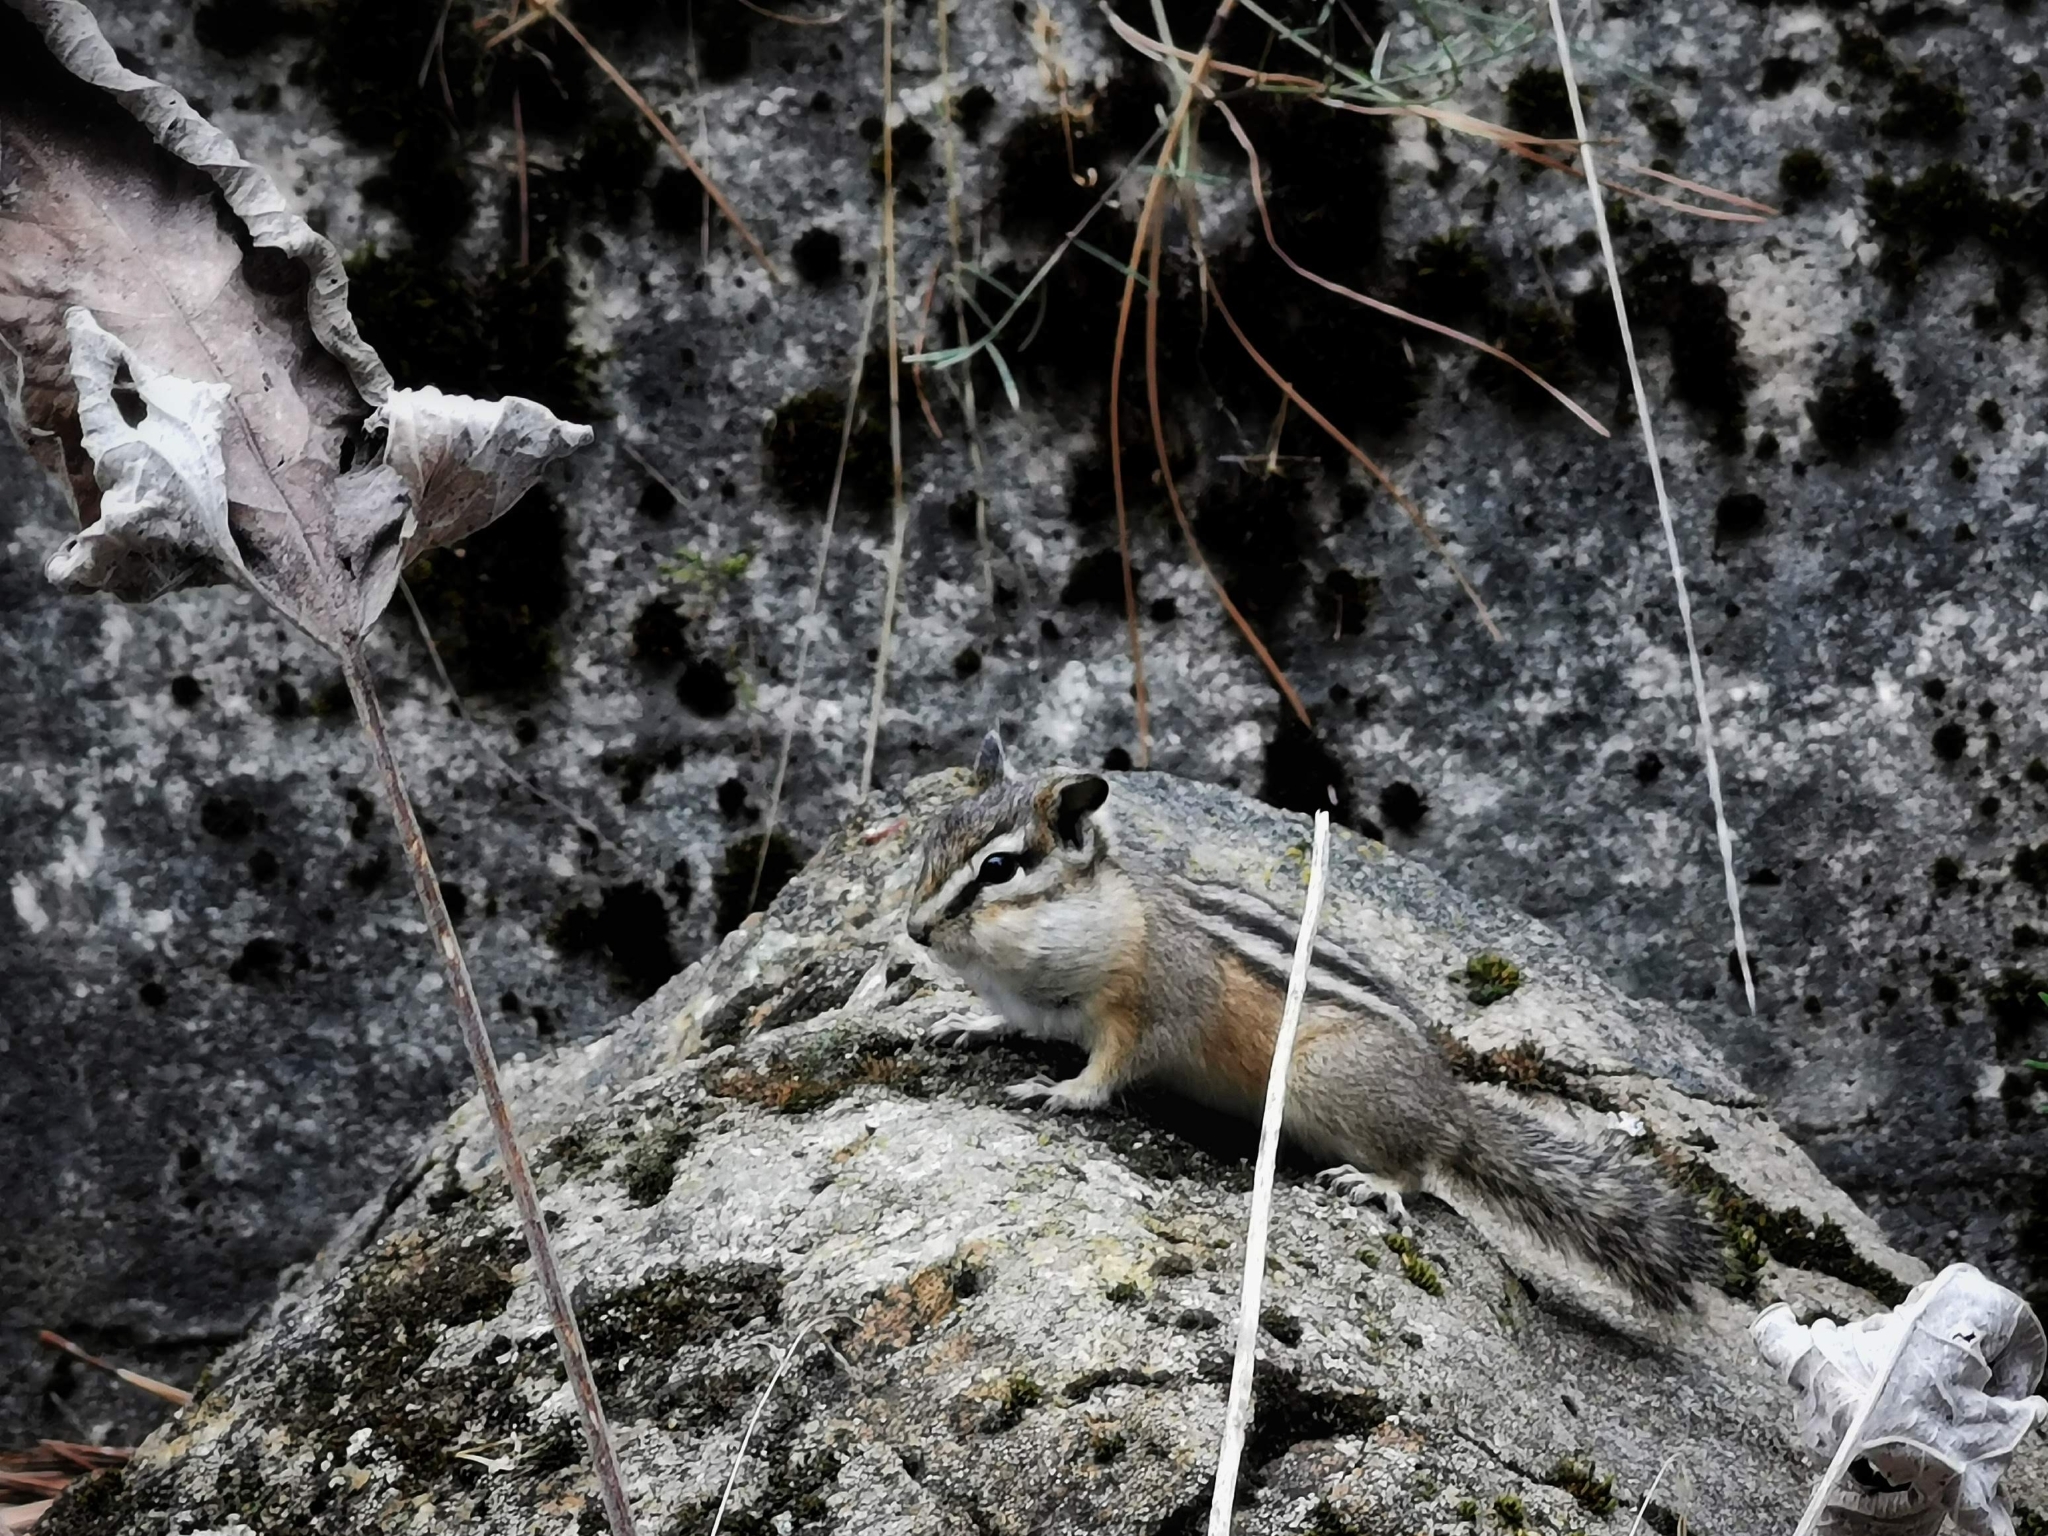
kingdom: Animalia
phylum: Chordata
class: Mammalia
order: Rodentia
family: Sciuridae
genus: Tamias
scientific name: Tamias amoenus
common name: Yellow-pine chipmunk
